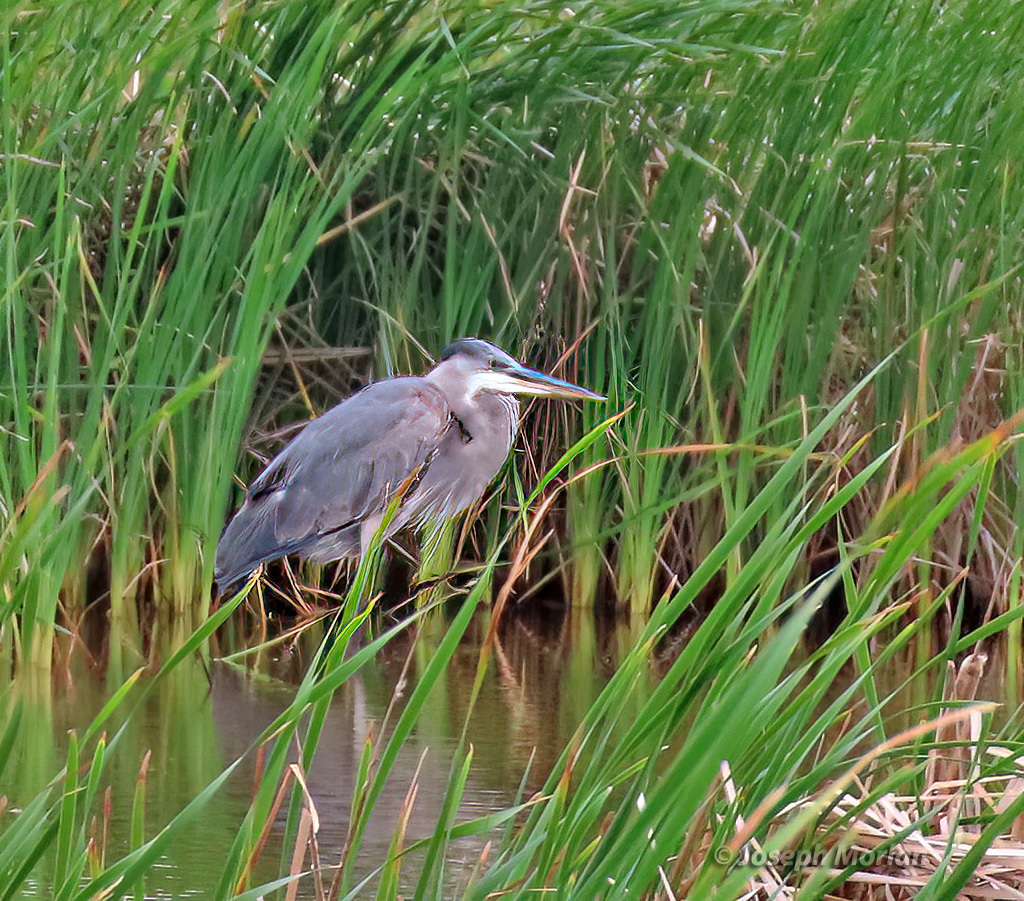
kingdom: Animalia
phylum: Chordata
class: Aves
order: Pelecaniformes
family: Ardeidae
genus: Ardea
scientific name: Ardea herodias
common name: Great blue heron
